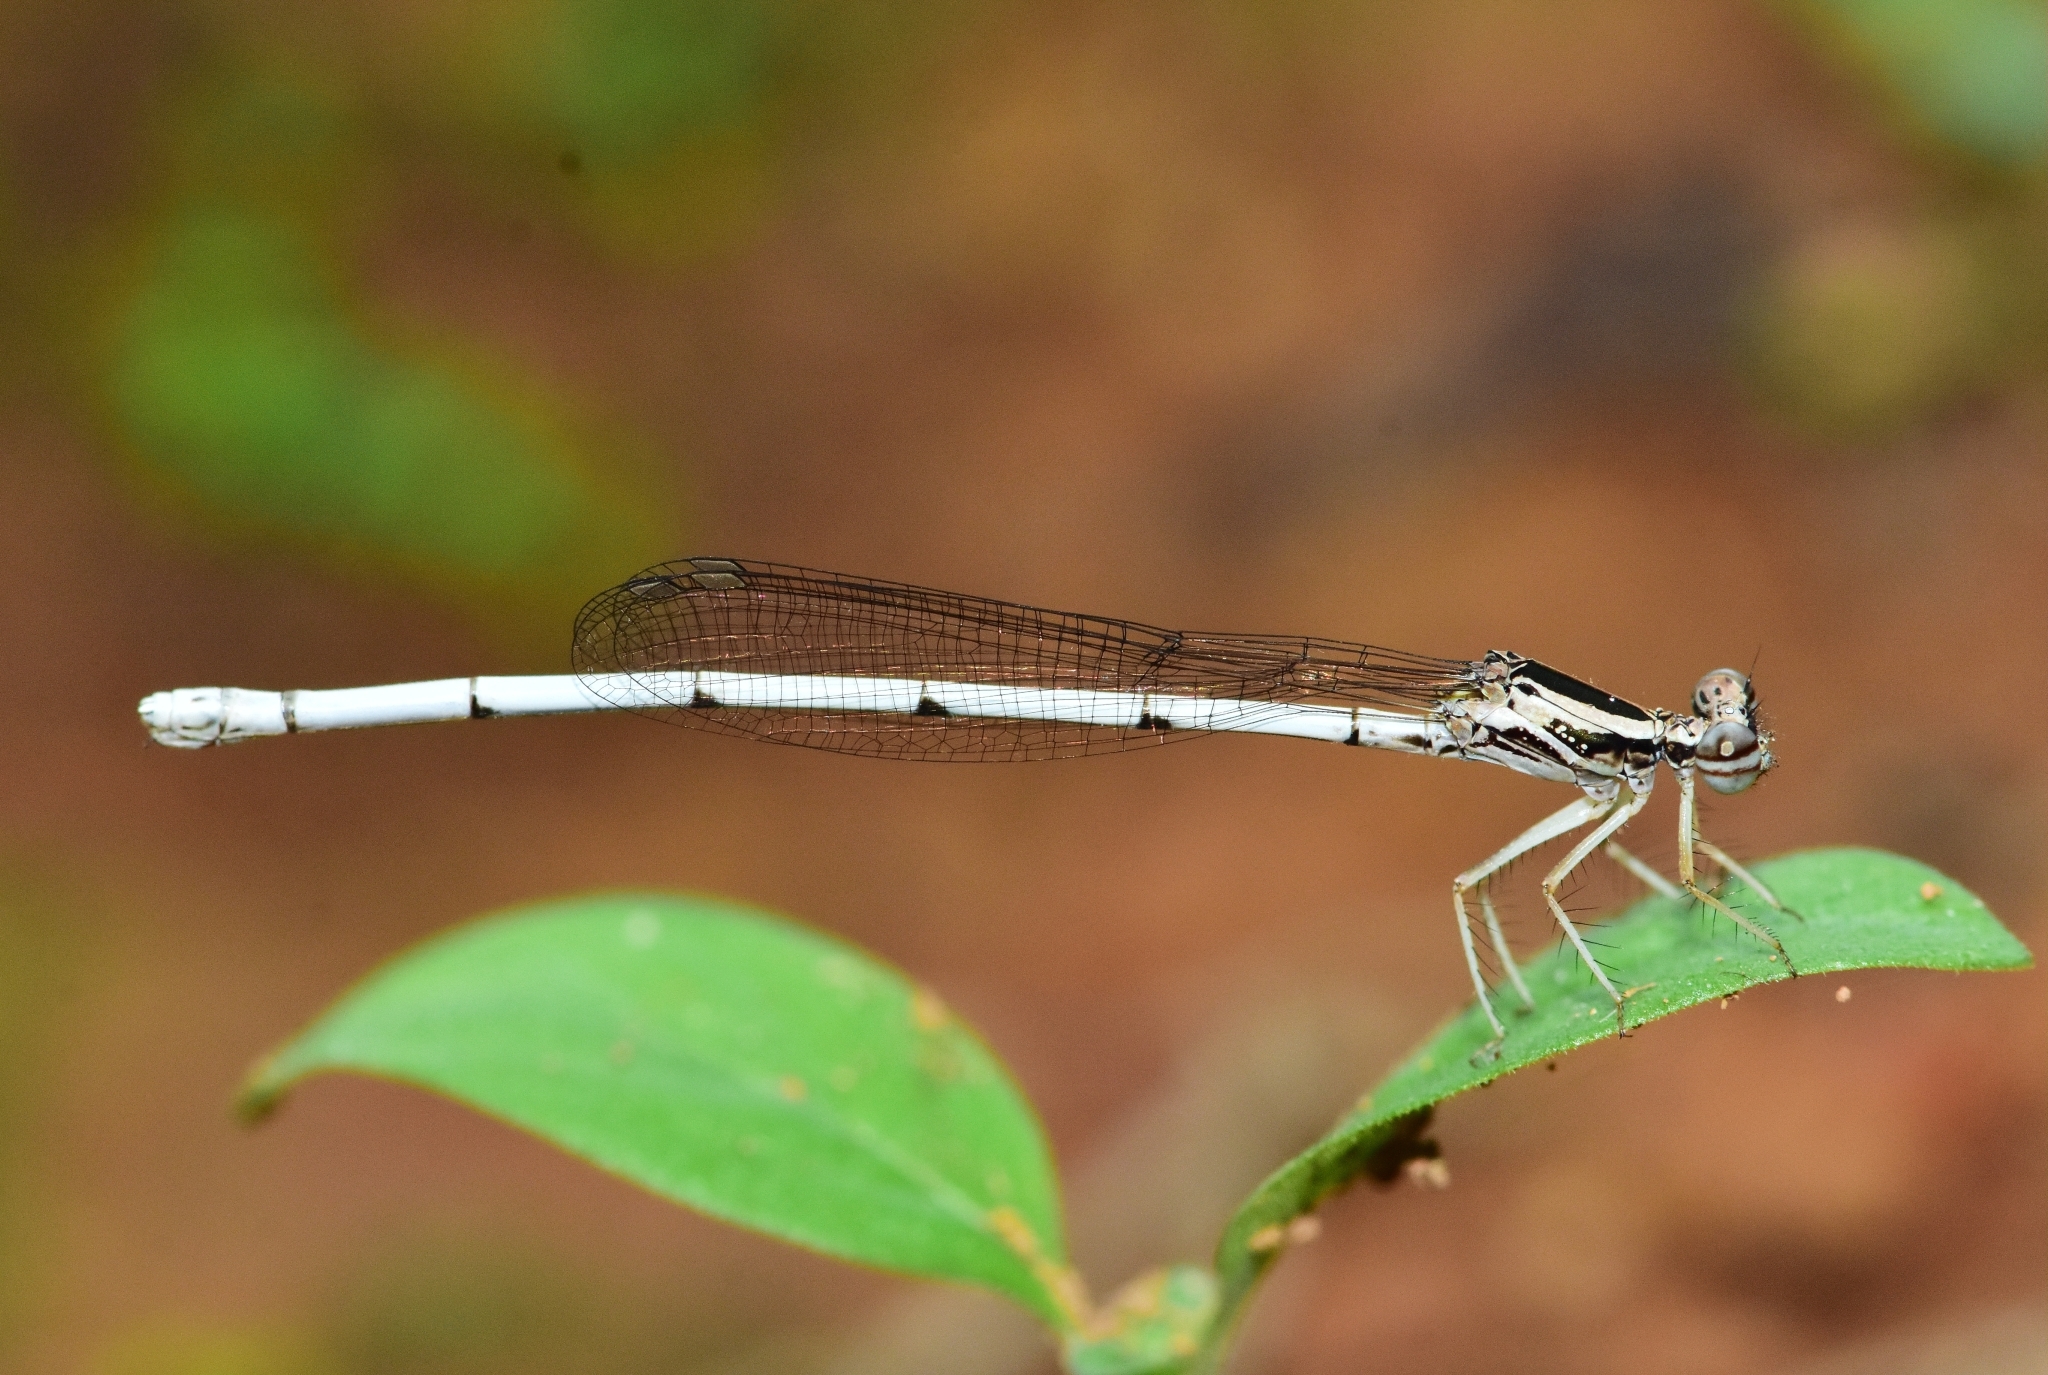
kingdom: Animalia
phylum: Arthropoda
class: Insecta
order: Odonata
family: Platycnemididae
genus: Copera
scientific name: Copera marginipes
